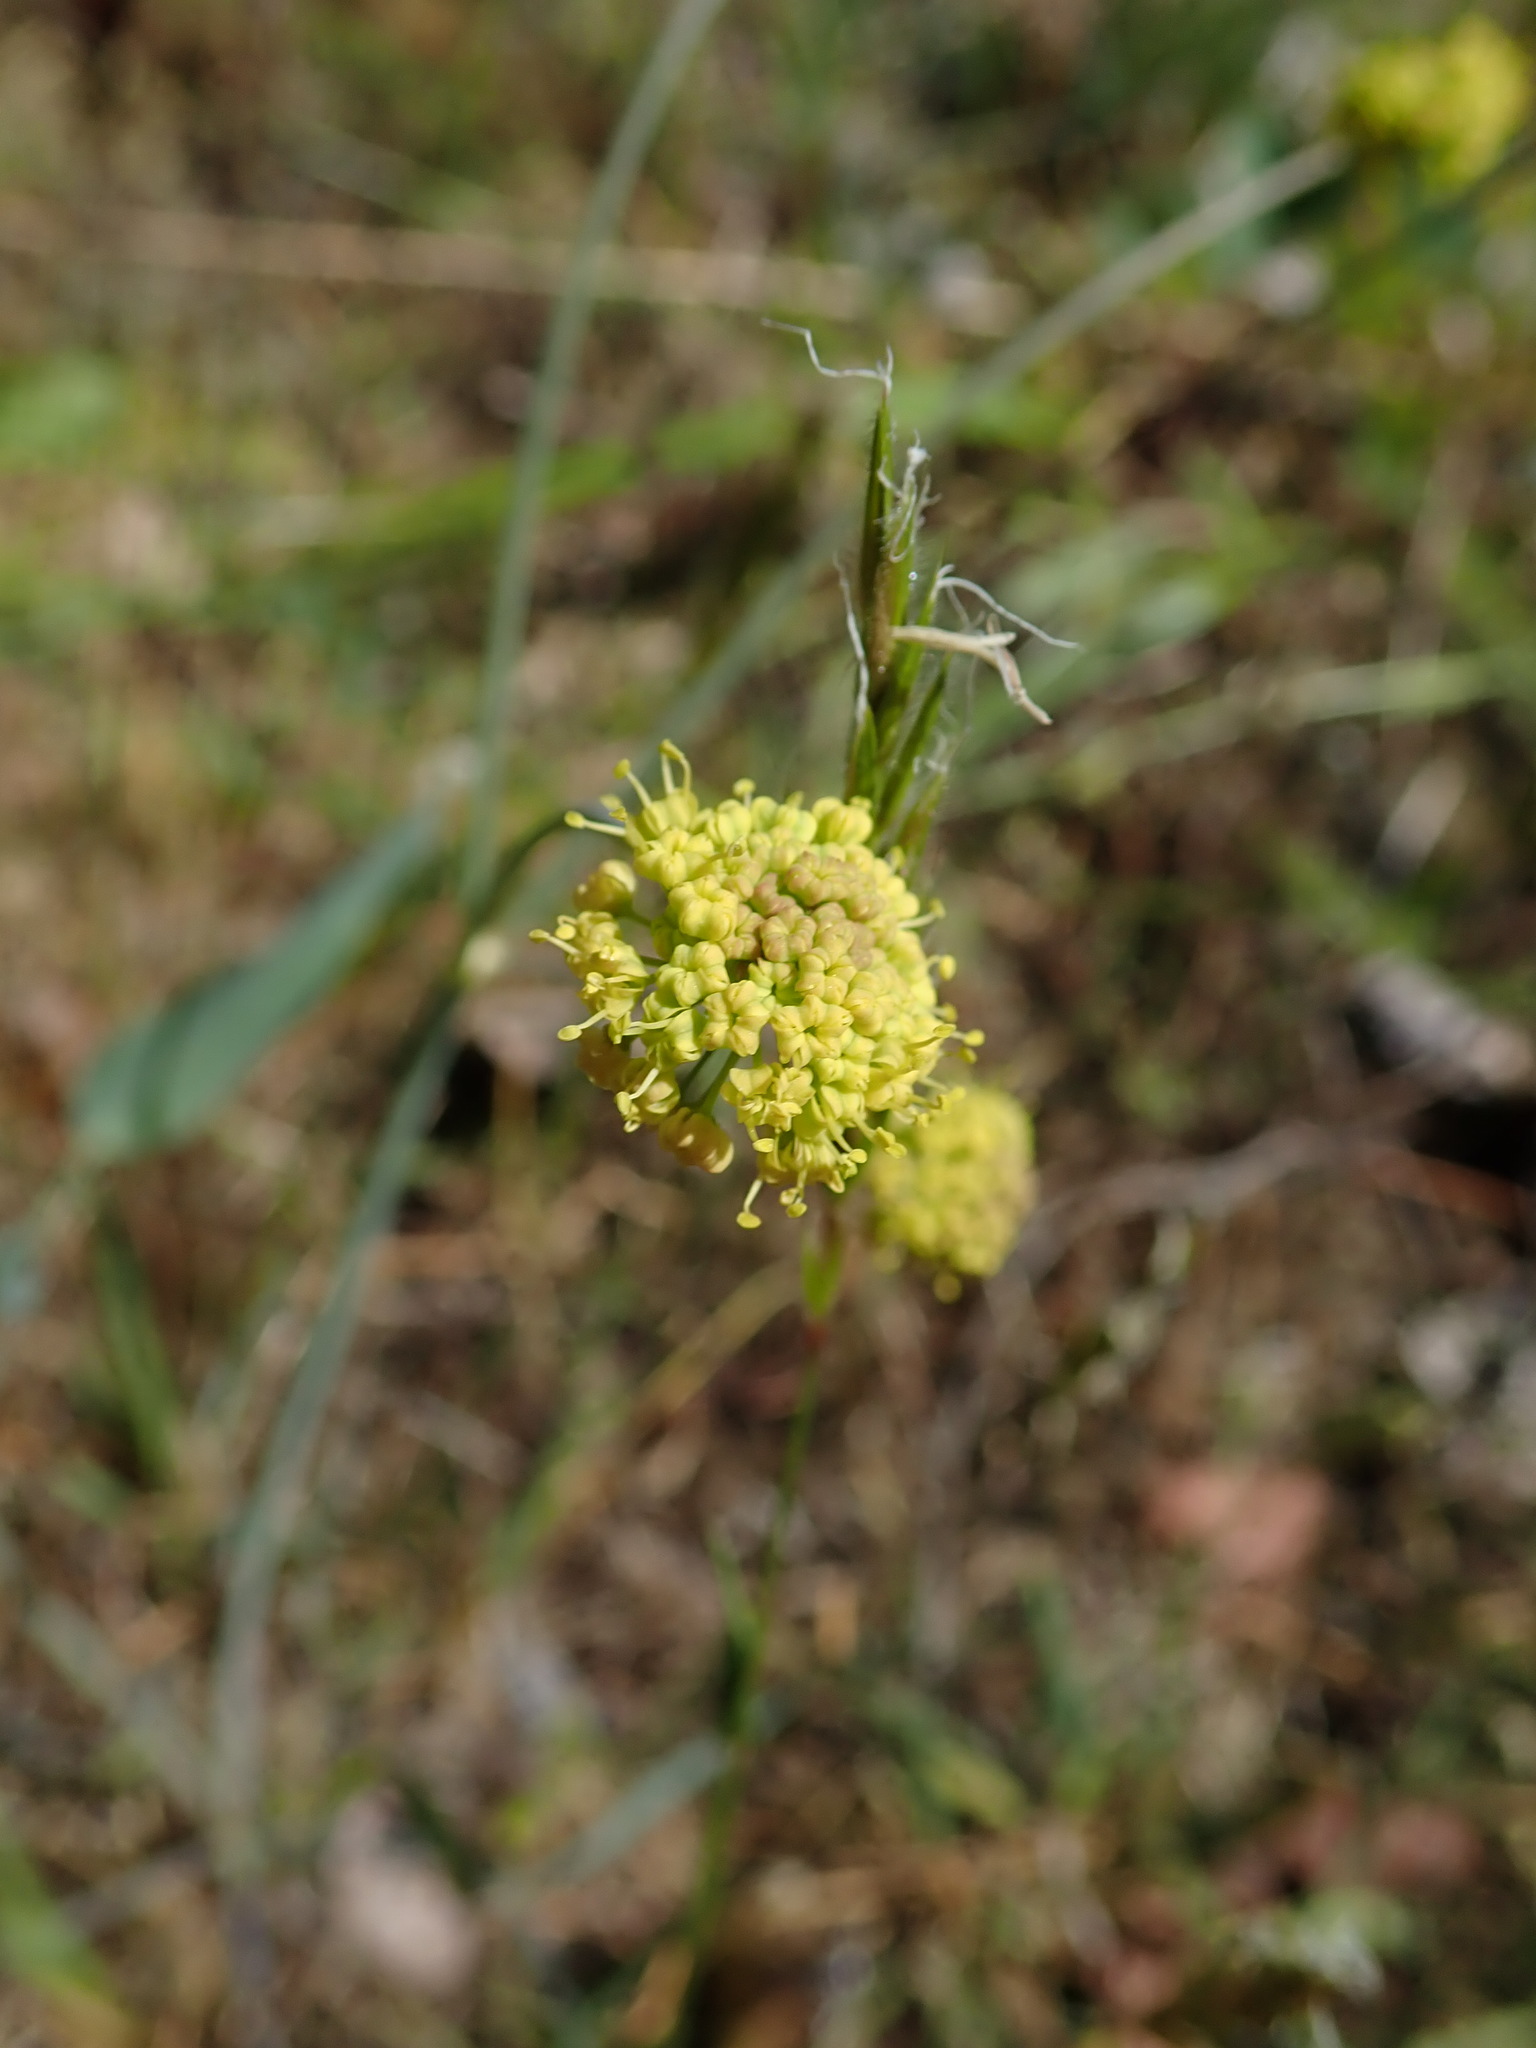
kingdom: Plantae
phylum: Tracheophyta
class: Magnoliopsida
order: Apiales
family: Apiaceae
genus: Lomatium
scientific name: Lomatium nudicaule
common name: Pestle lomatium
